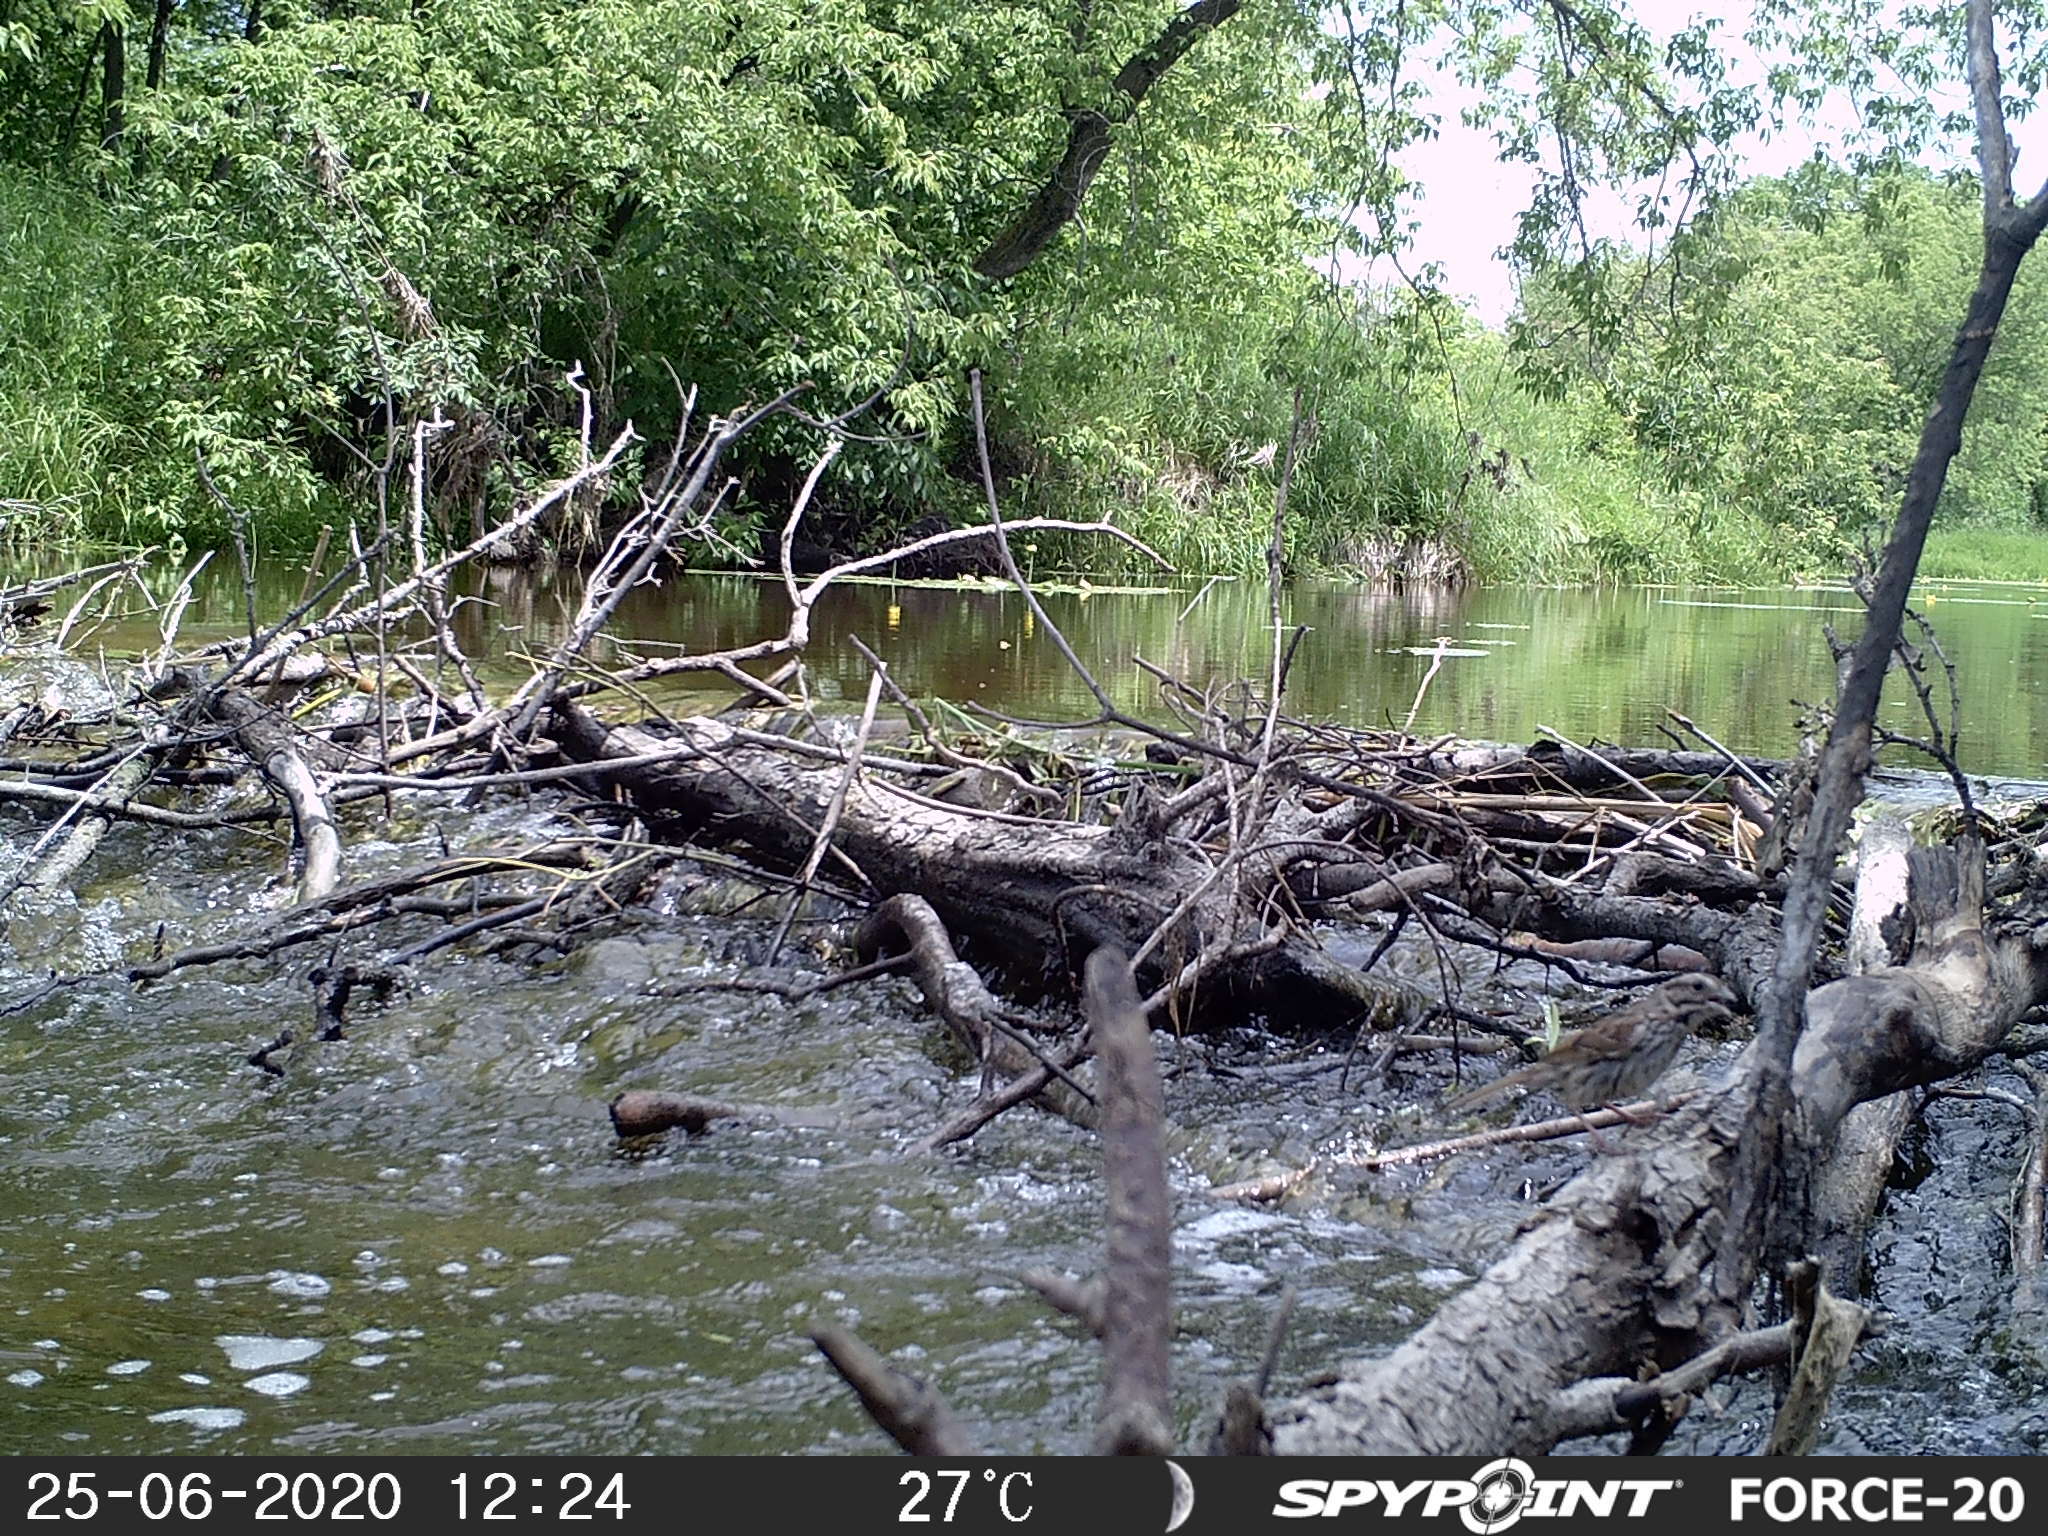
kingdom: Animalia
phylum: Chordata
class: Aves
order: Passeriformes
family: Passerellidae
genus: Melospiza
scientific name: Melospiza melodia
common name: Song sparrow
